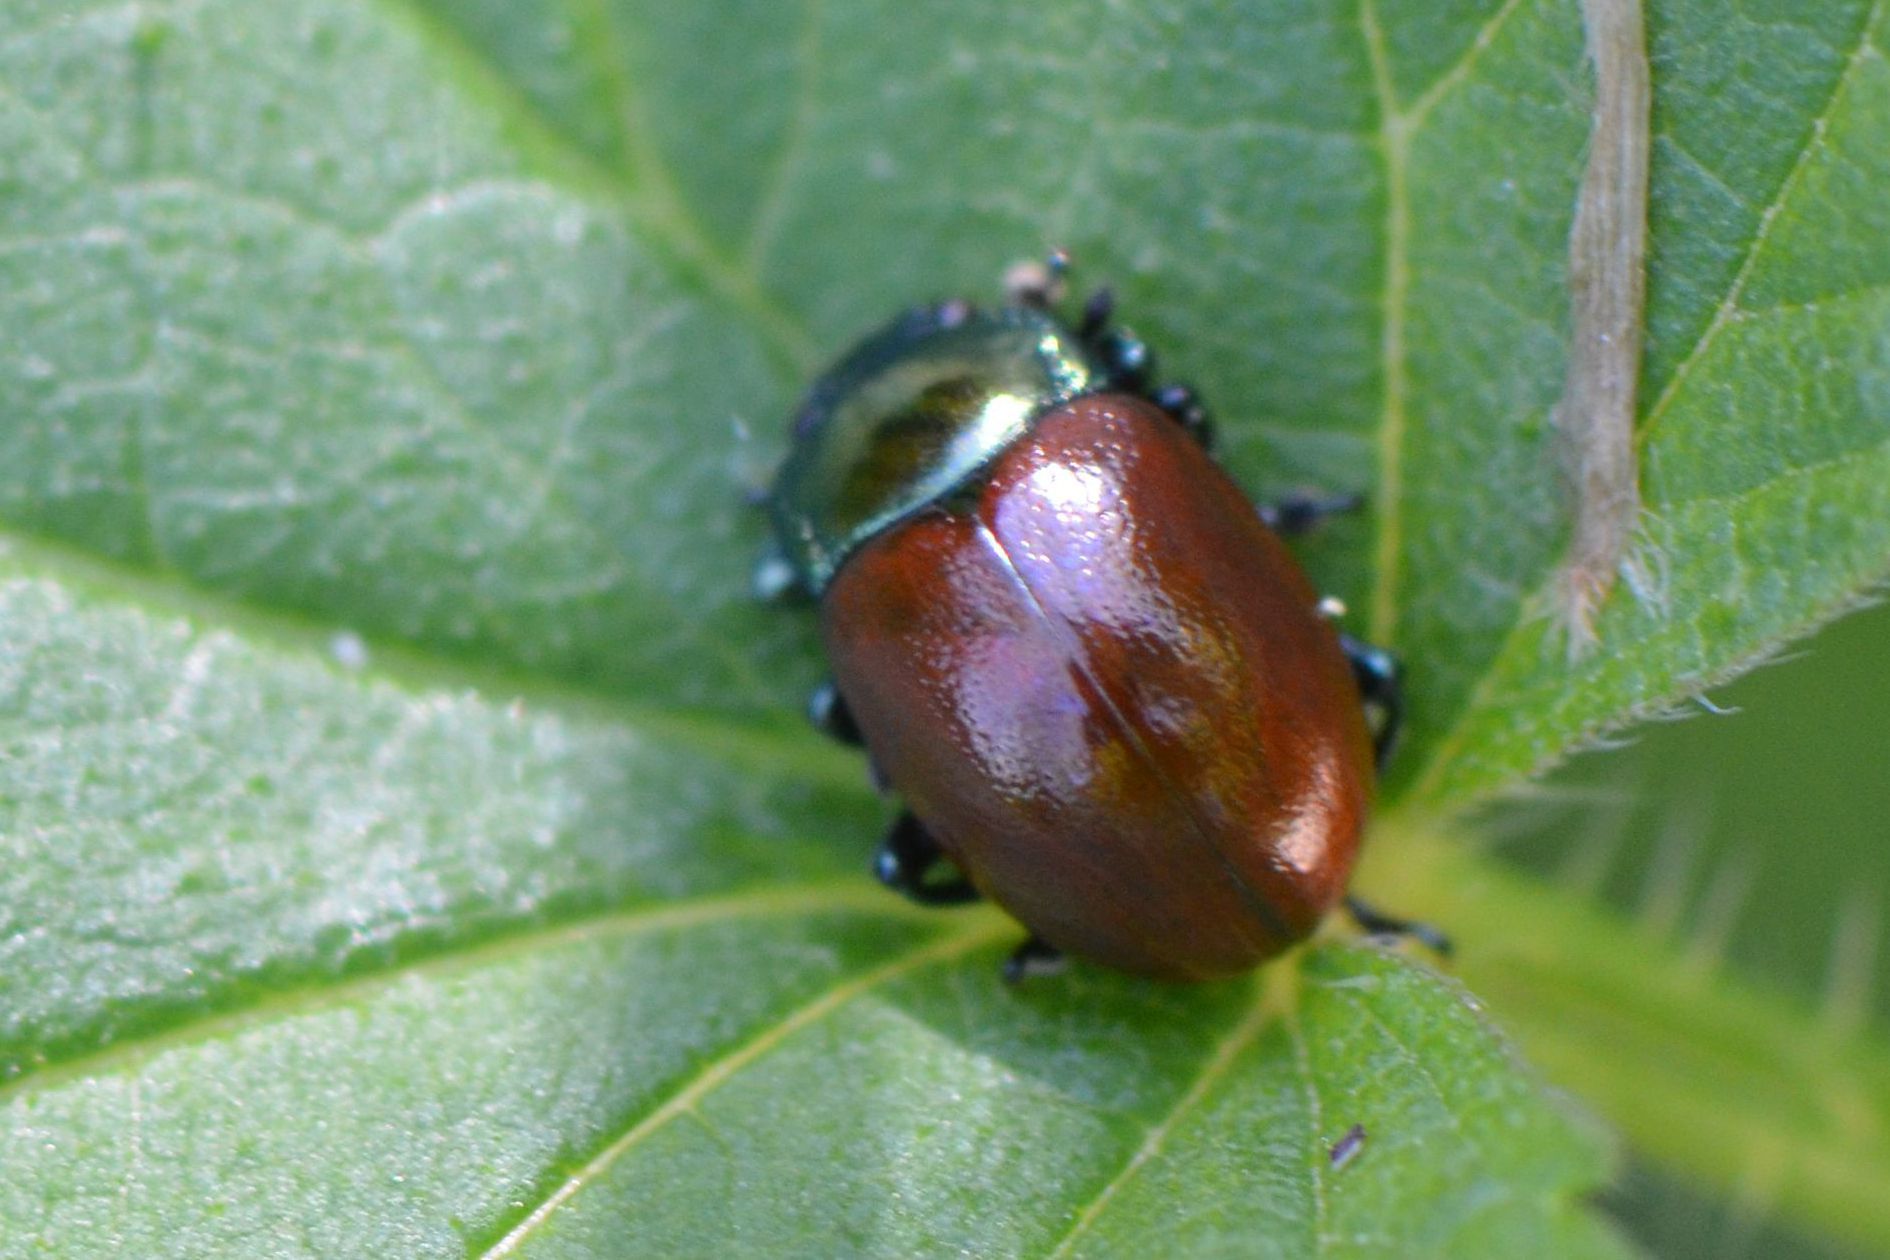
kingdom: Animalia
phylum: Arthropoda
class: Insecta
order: Coleoptera
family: Chrysomelidae
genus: Chrysomela
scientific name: Chrysomela polita
